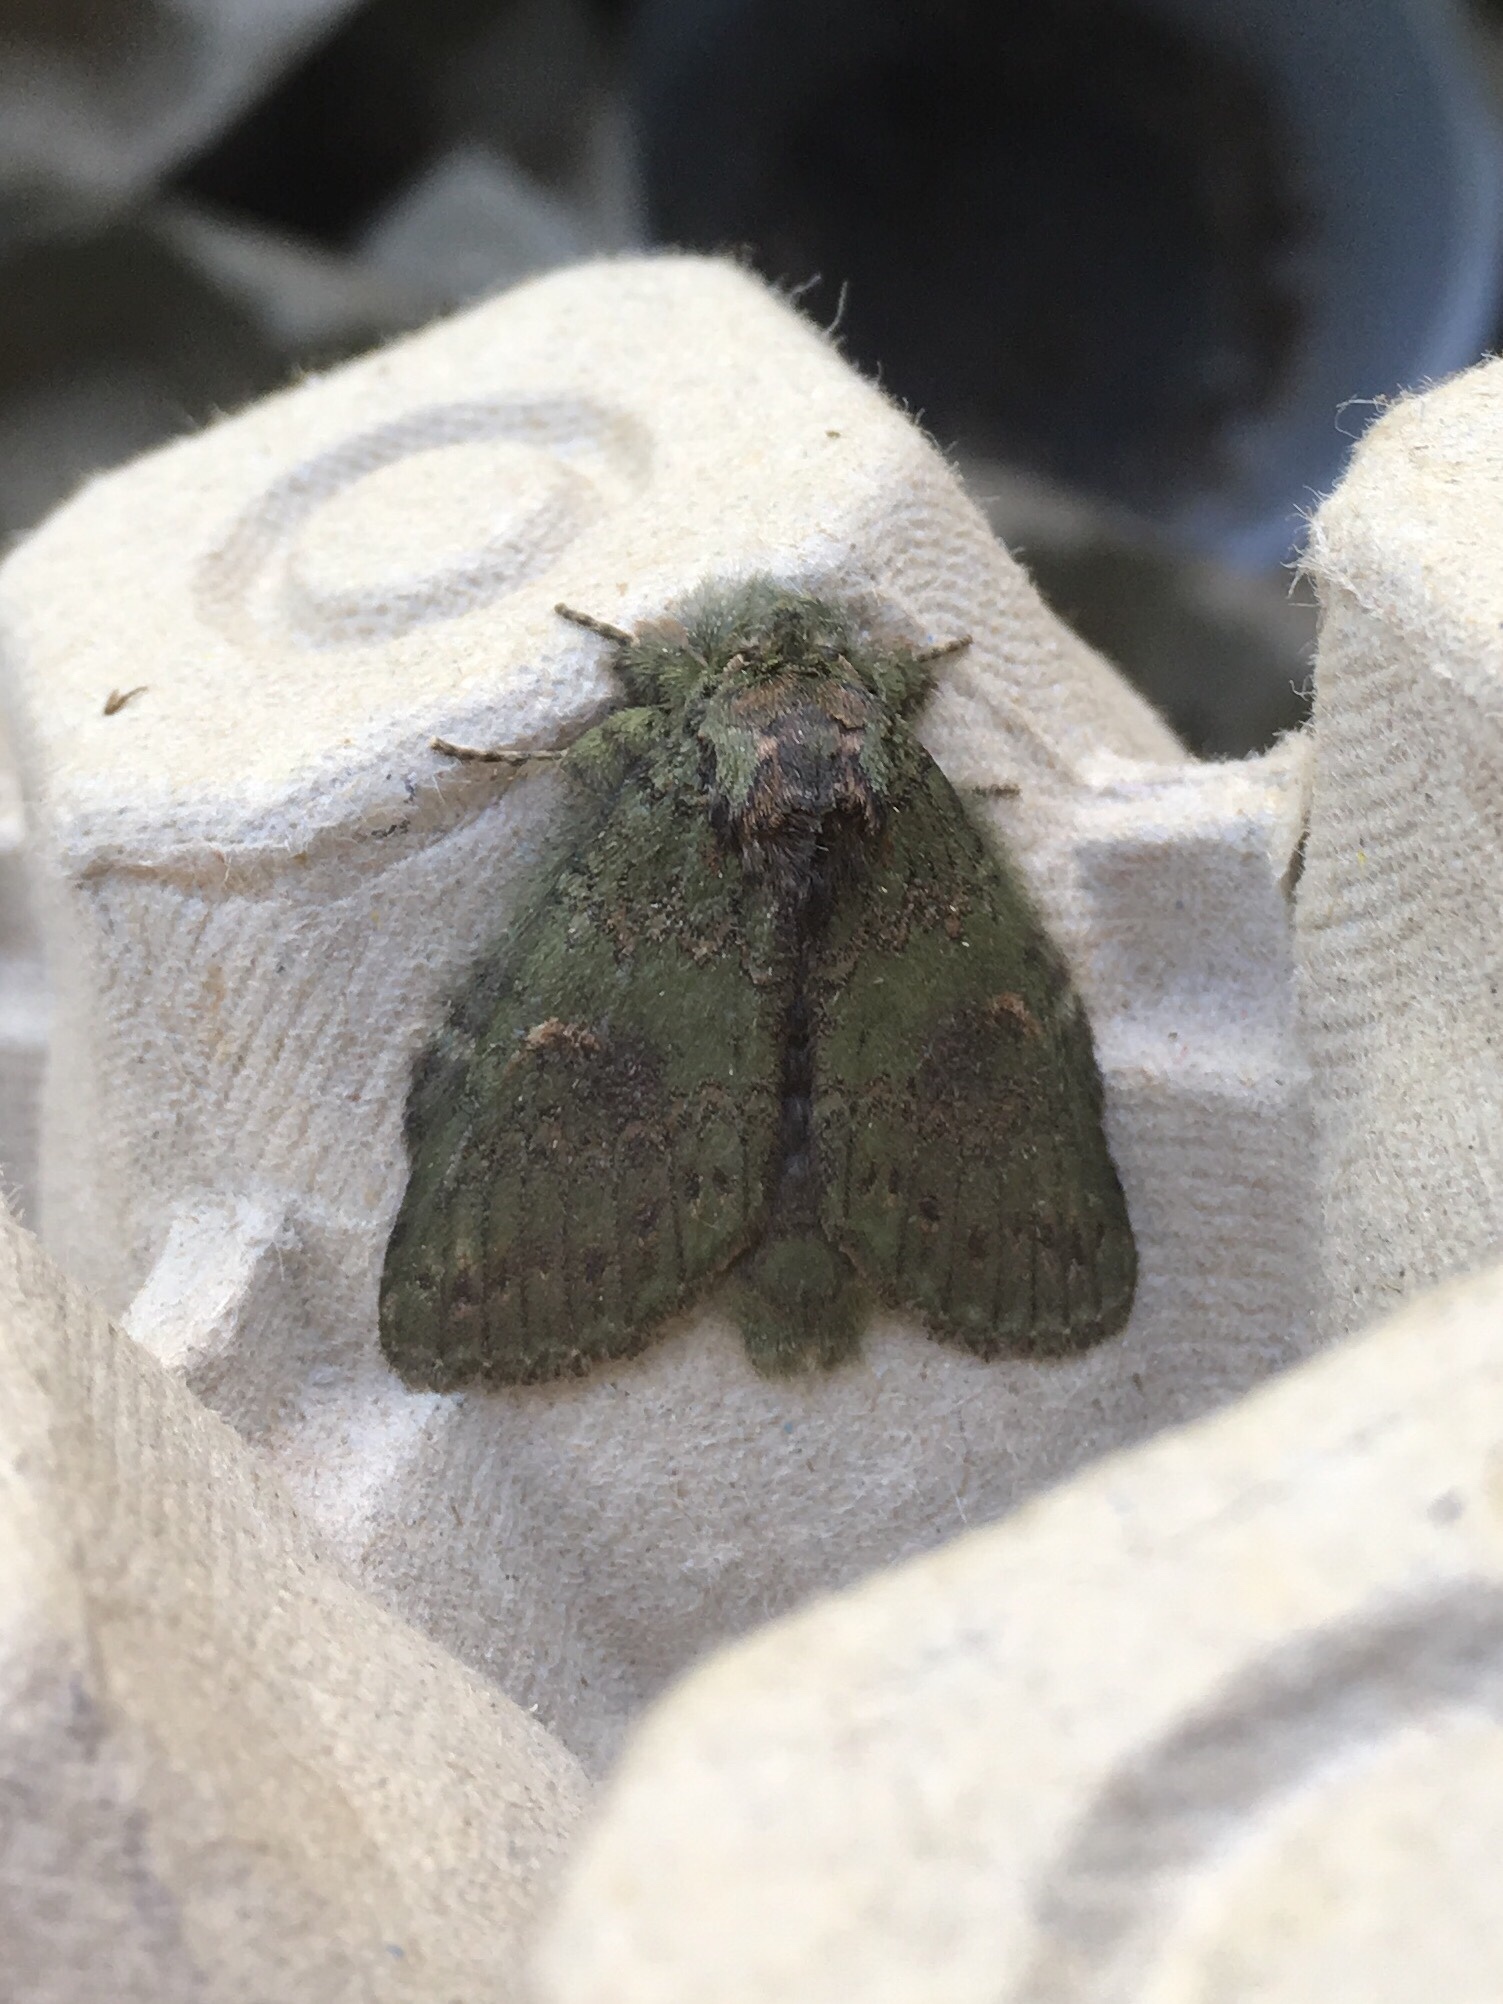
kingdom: Animalia
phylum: Arthropoda
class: Insecta
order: Lepidoptera
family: Notodontidae
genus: Disphragis
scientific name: Disphragis Cecrita biundata
